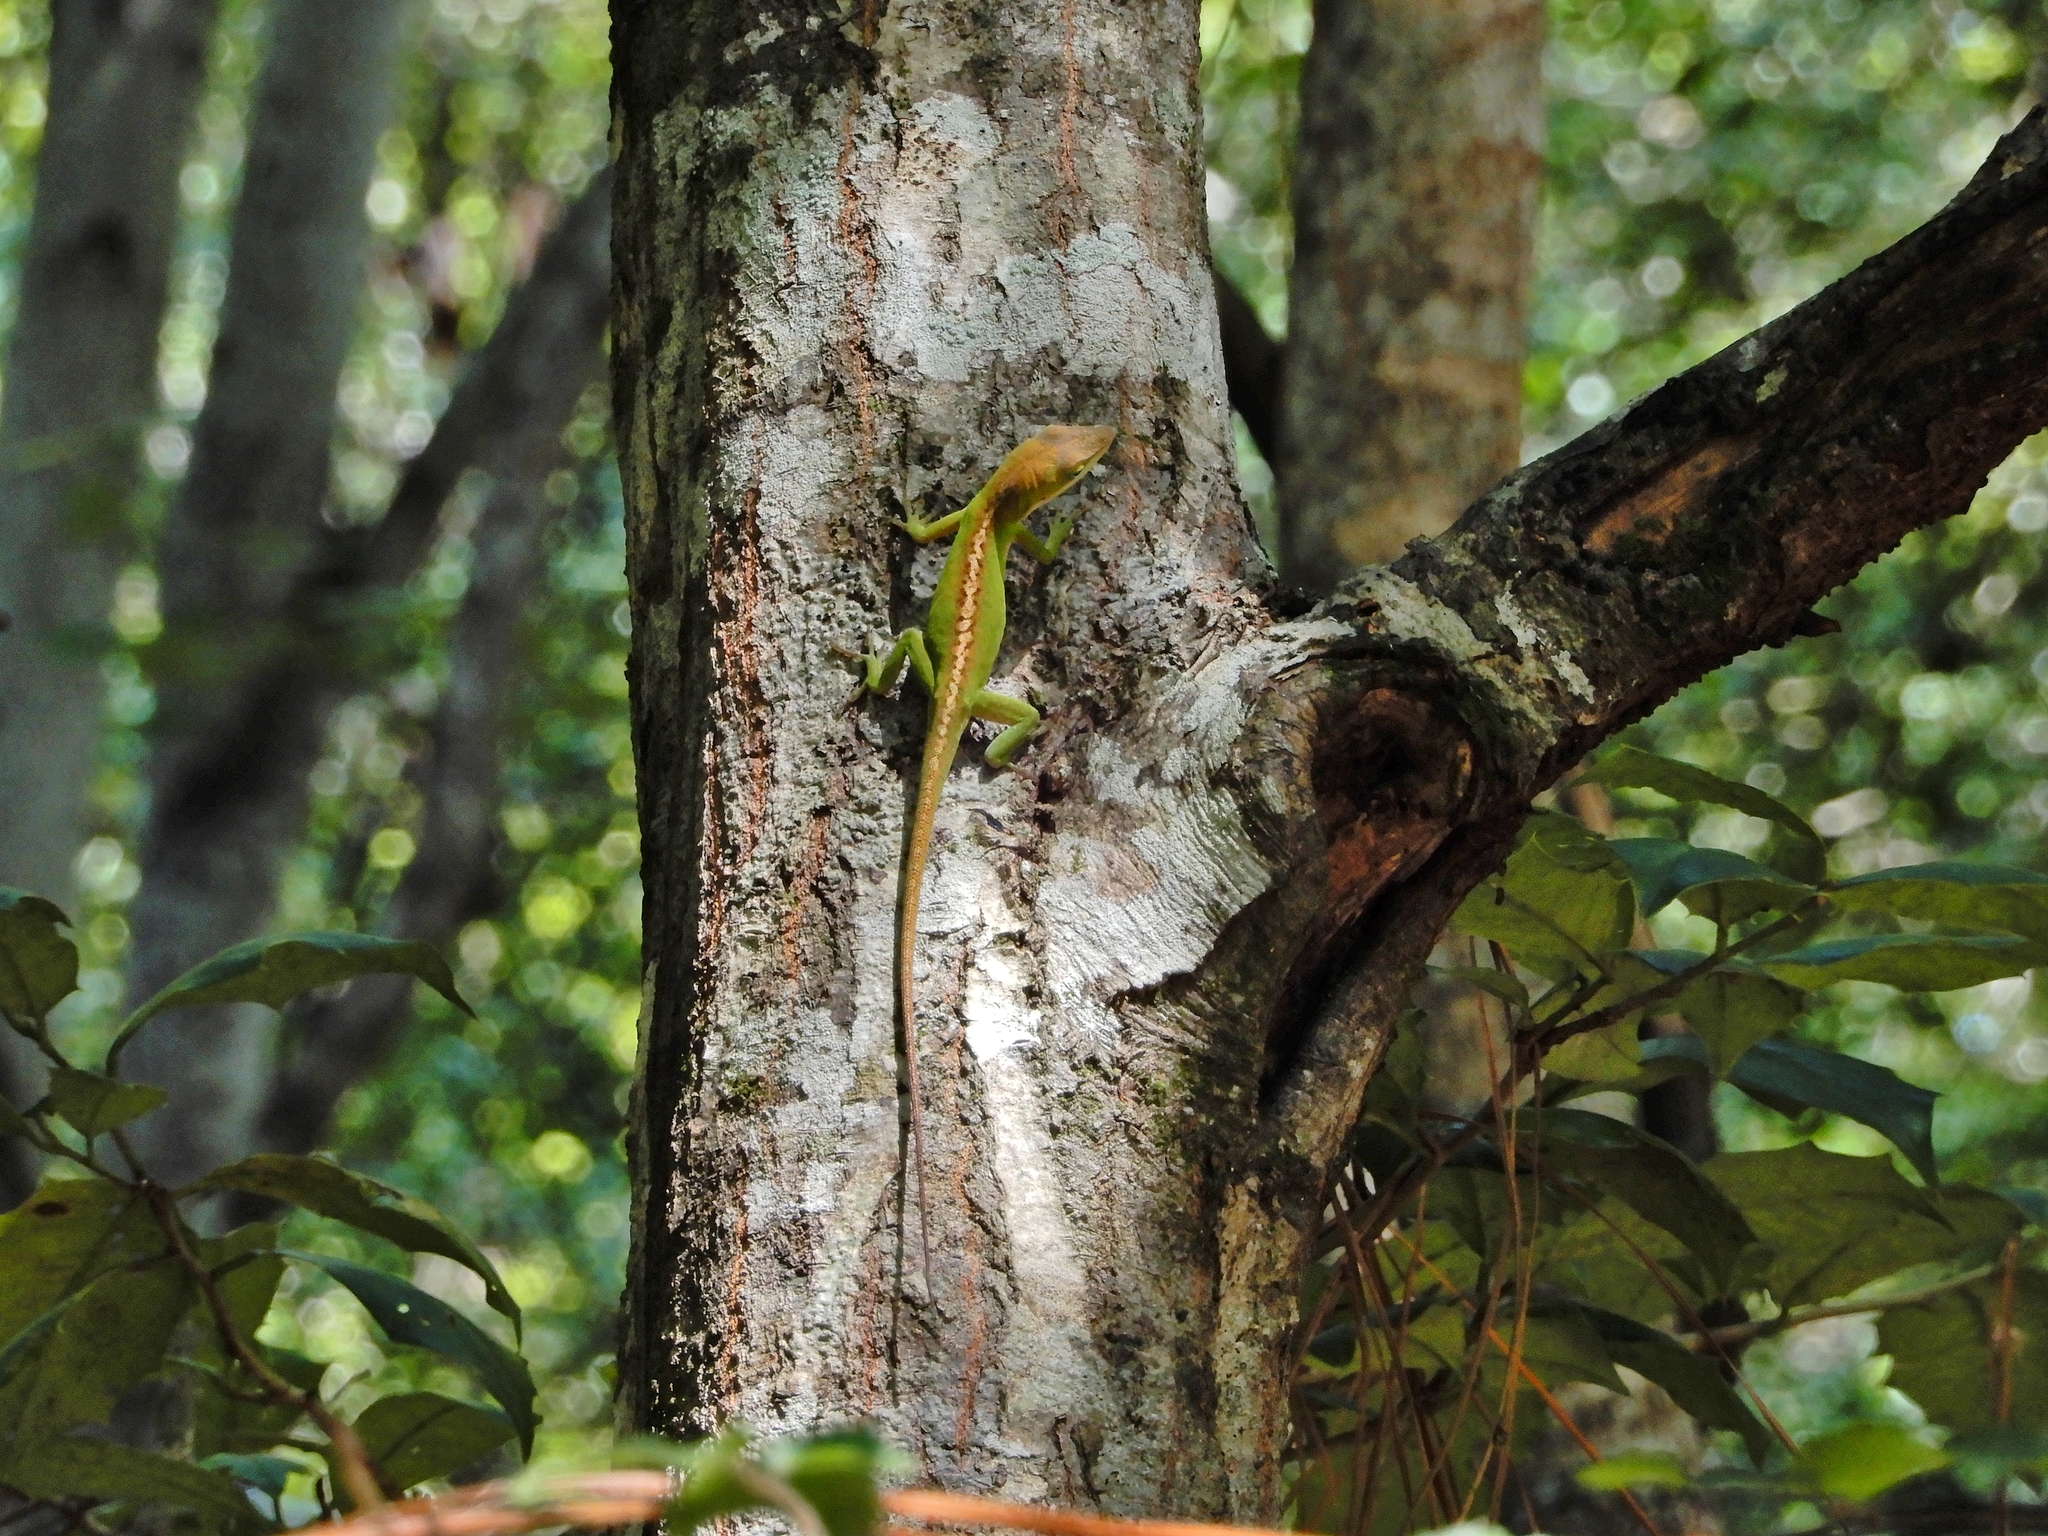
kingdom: Animalia
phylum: Chordata
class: Squamata
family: Dactyloidae
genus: Anolis
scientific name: Anolis carolinensis
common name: Green anole
